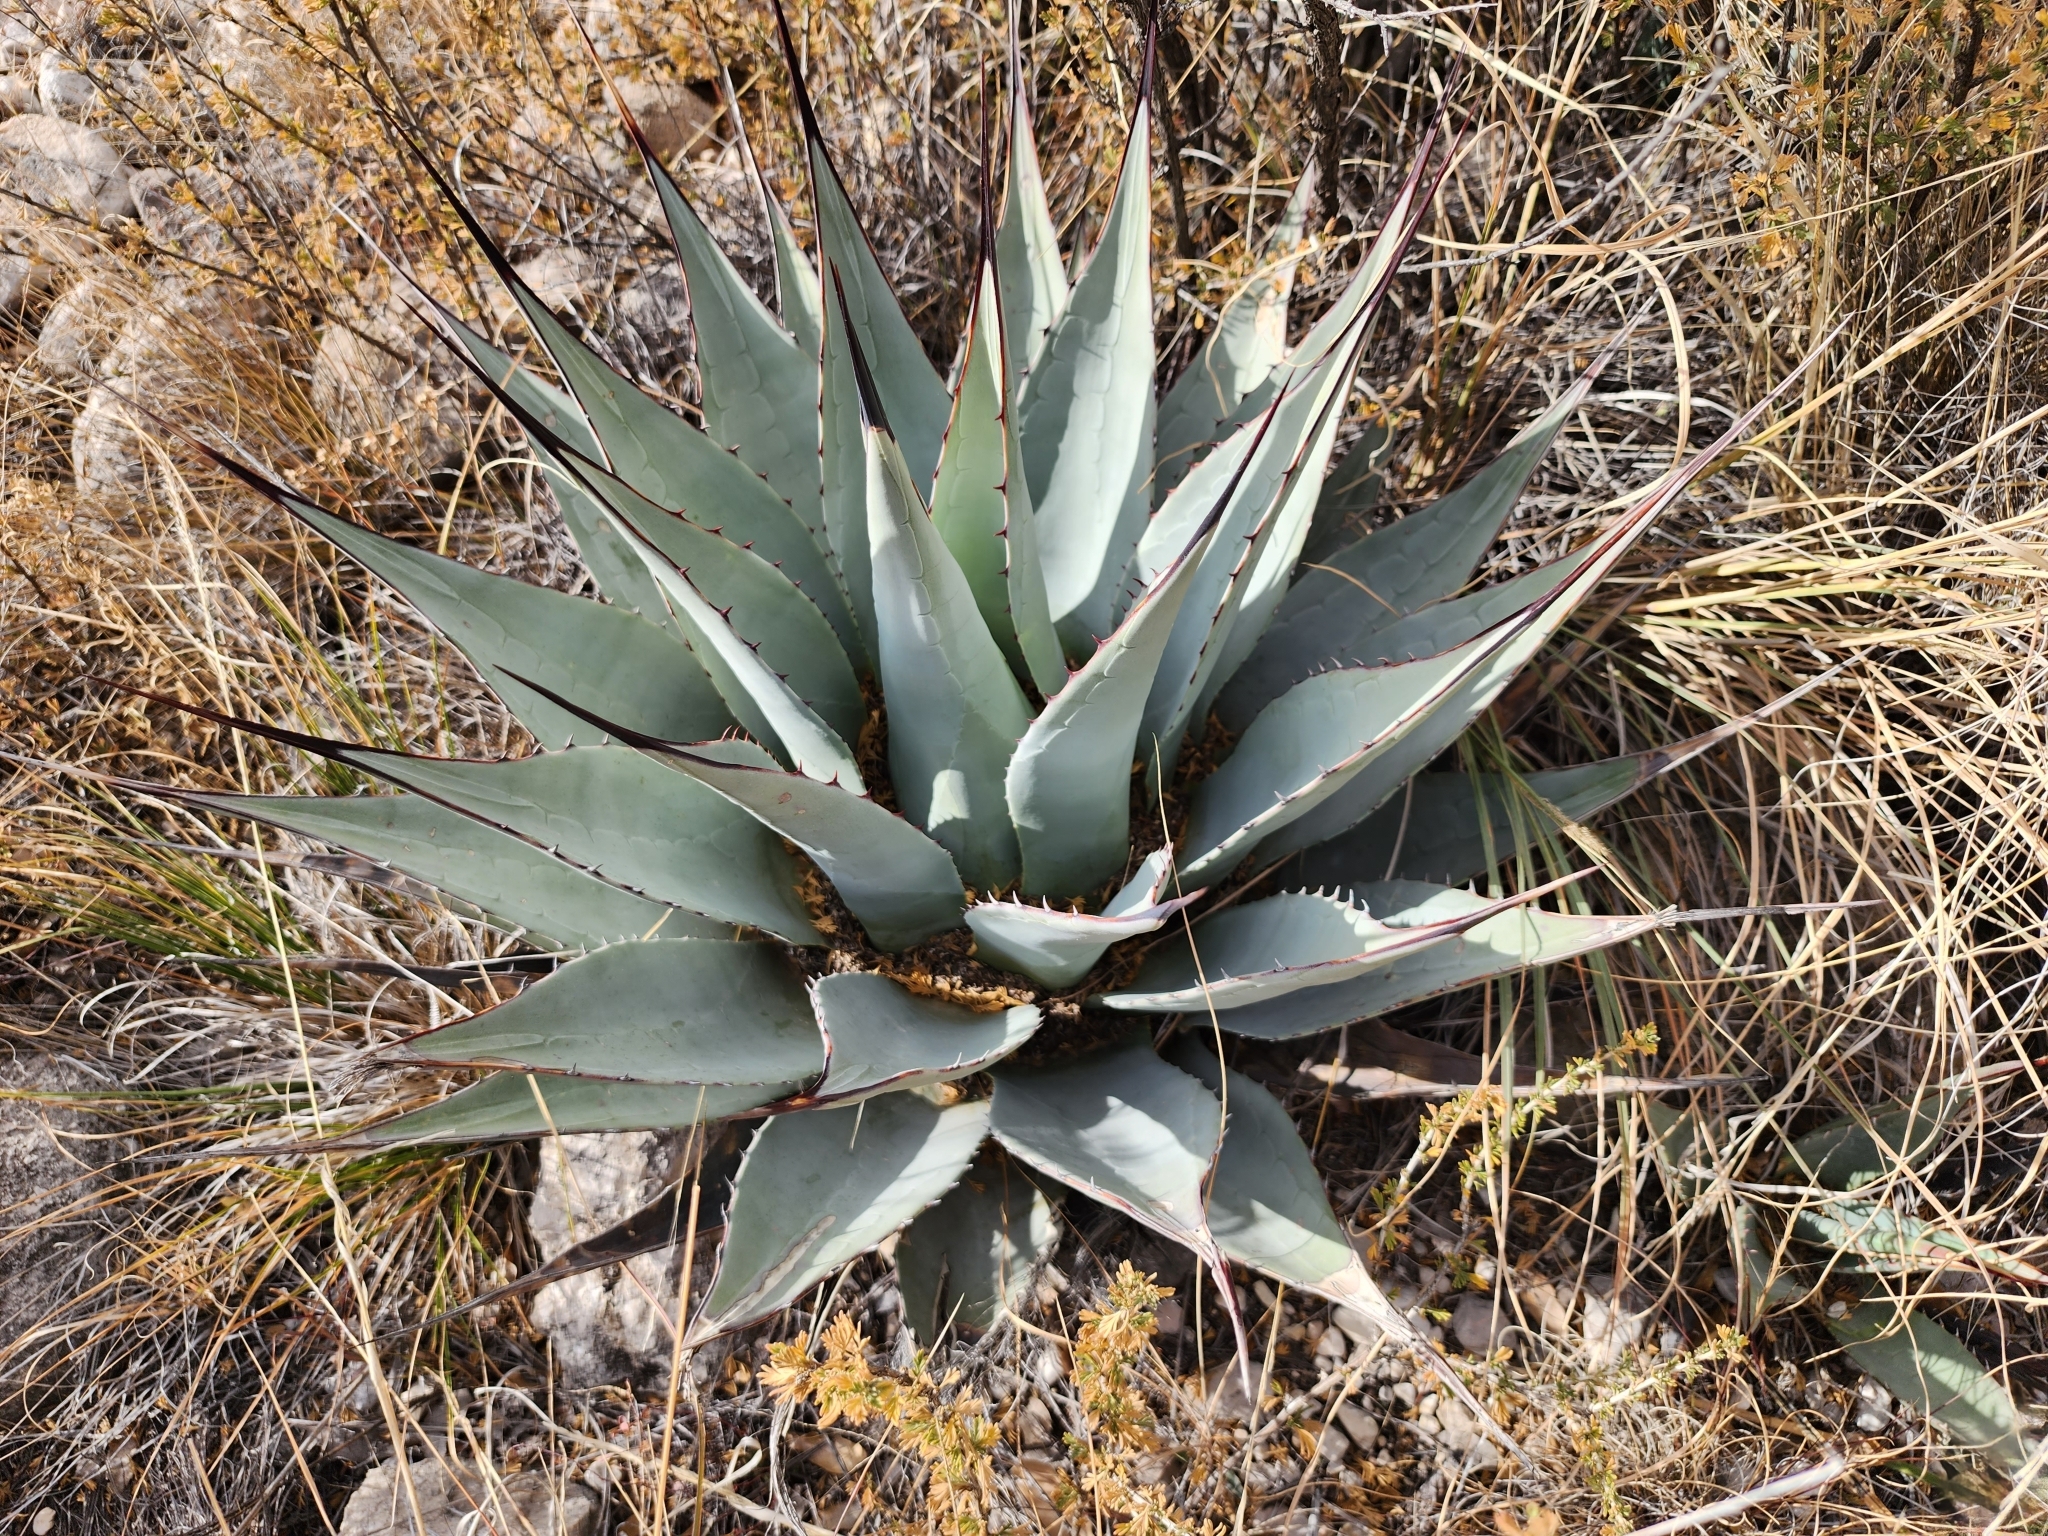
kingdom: Plantae
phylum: Tracheophyta
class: Liliopsida
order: Asparagales
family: Asparagaceae
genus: Agave
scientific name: Agave parryi
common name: Parry's agave
